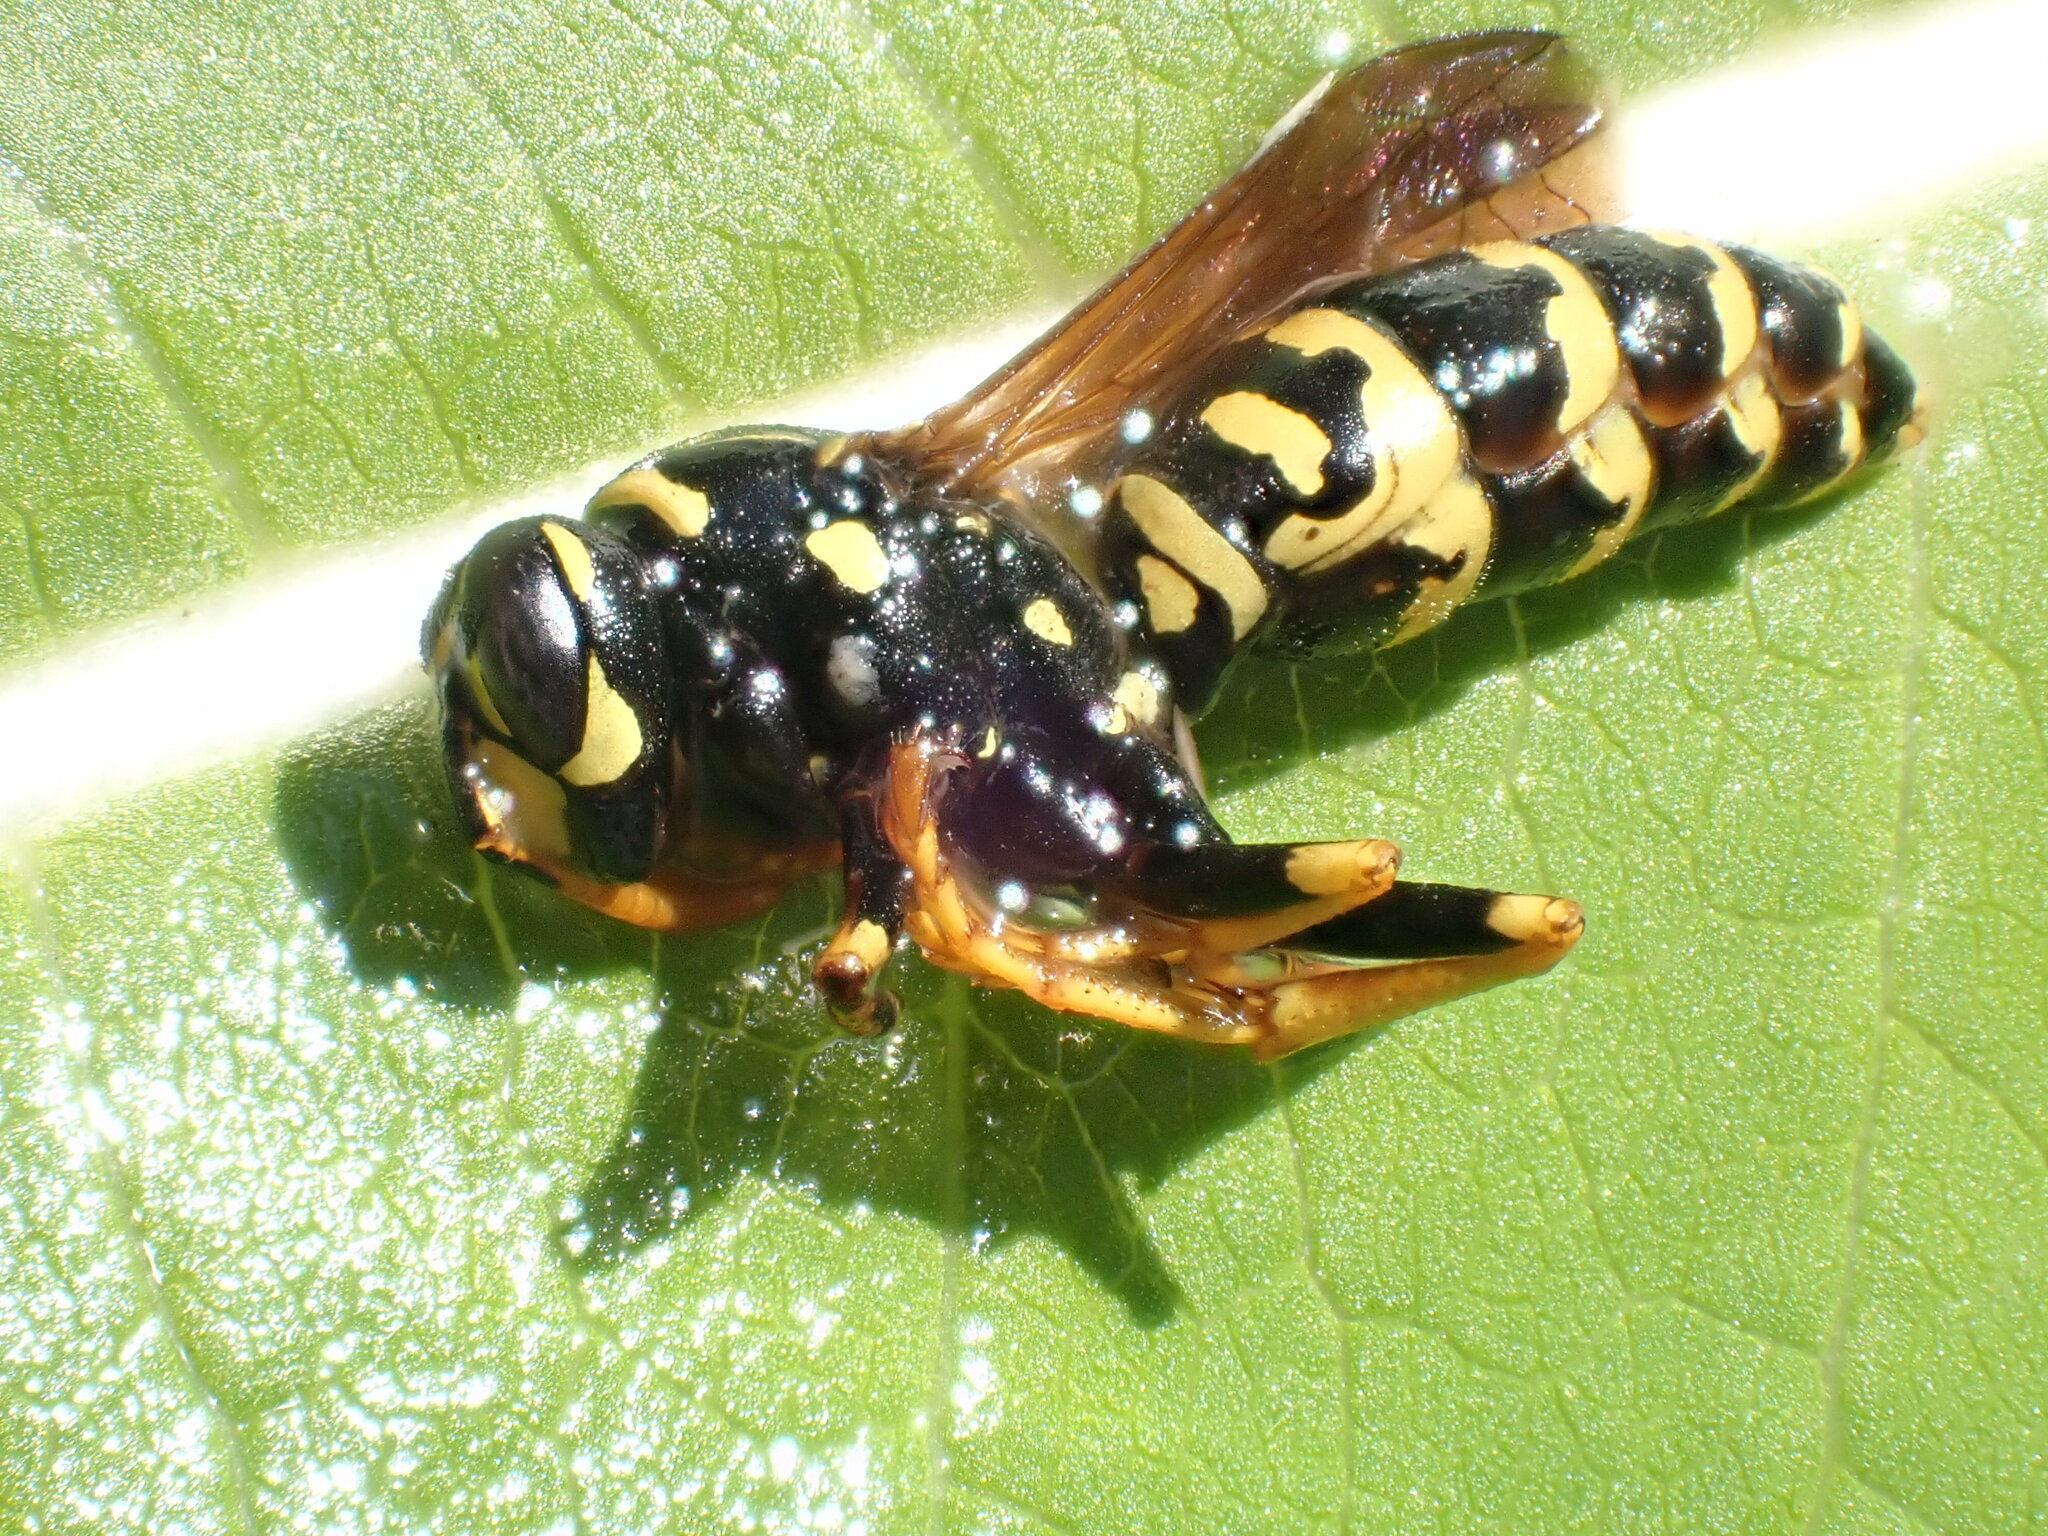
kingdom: Animalia
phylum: Arthropoda
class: Insecta
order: Hymenoptera
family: Eumenidae
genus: Polistes
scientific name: Polistes dominula
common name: Paper wasp
